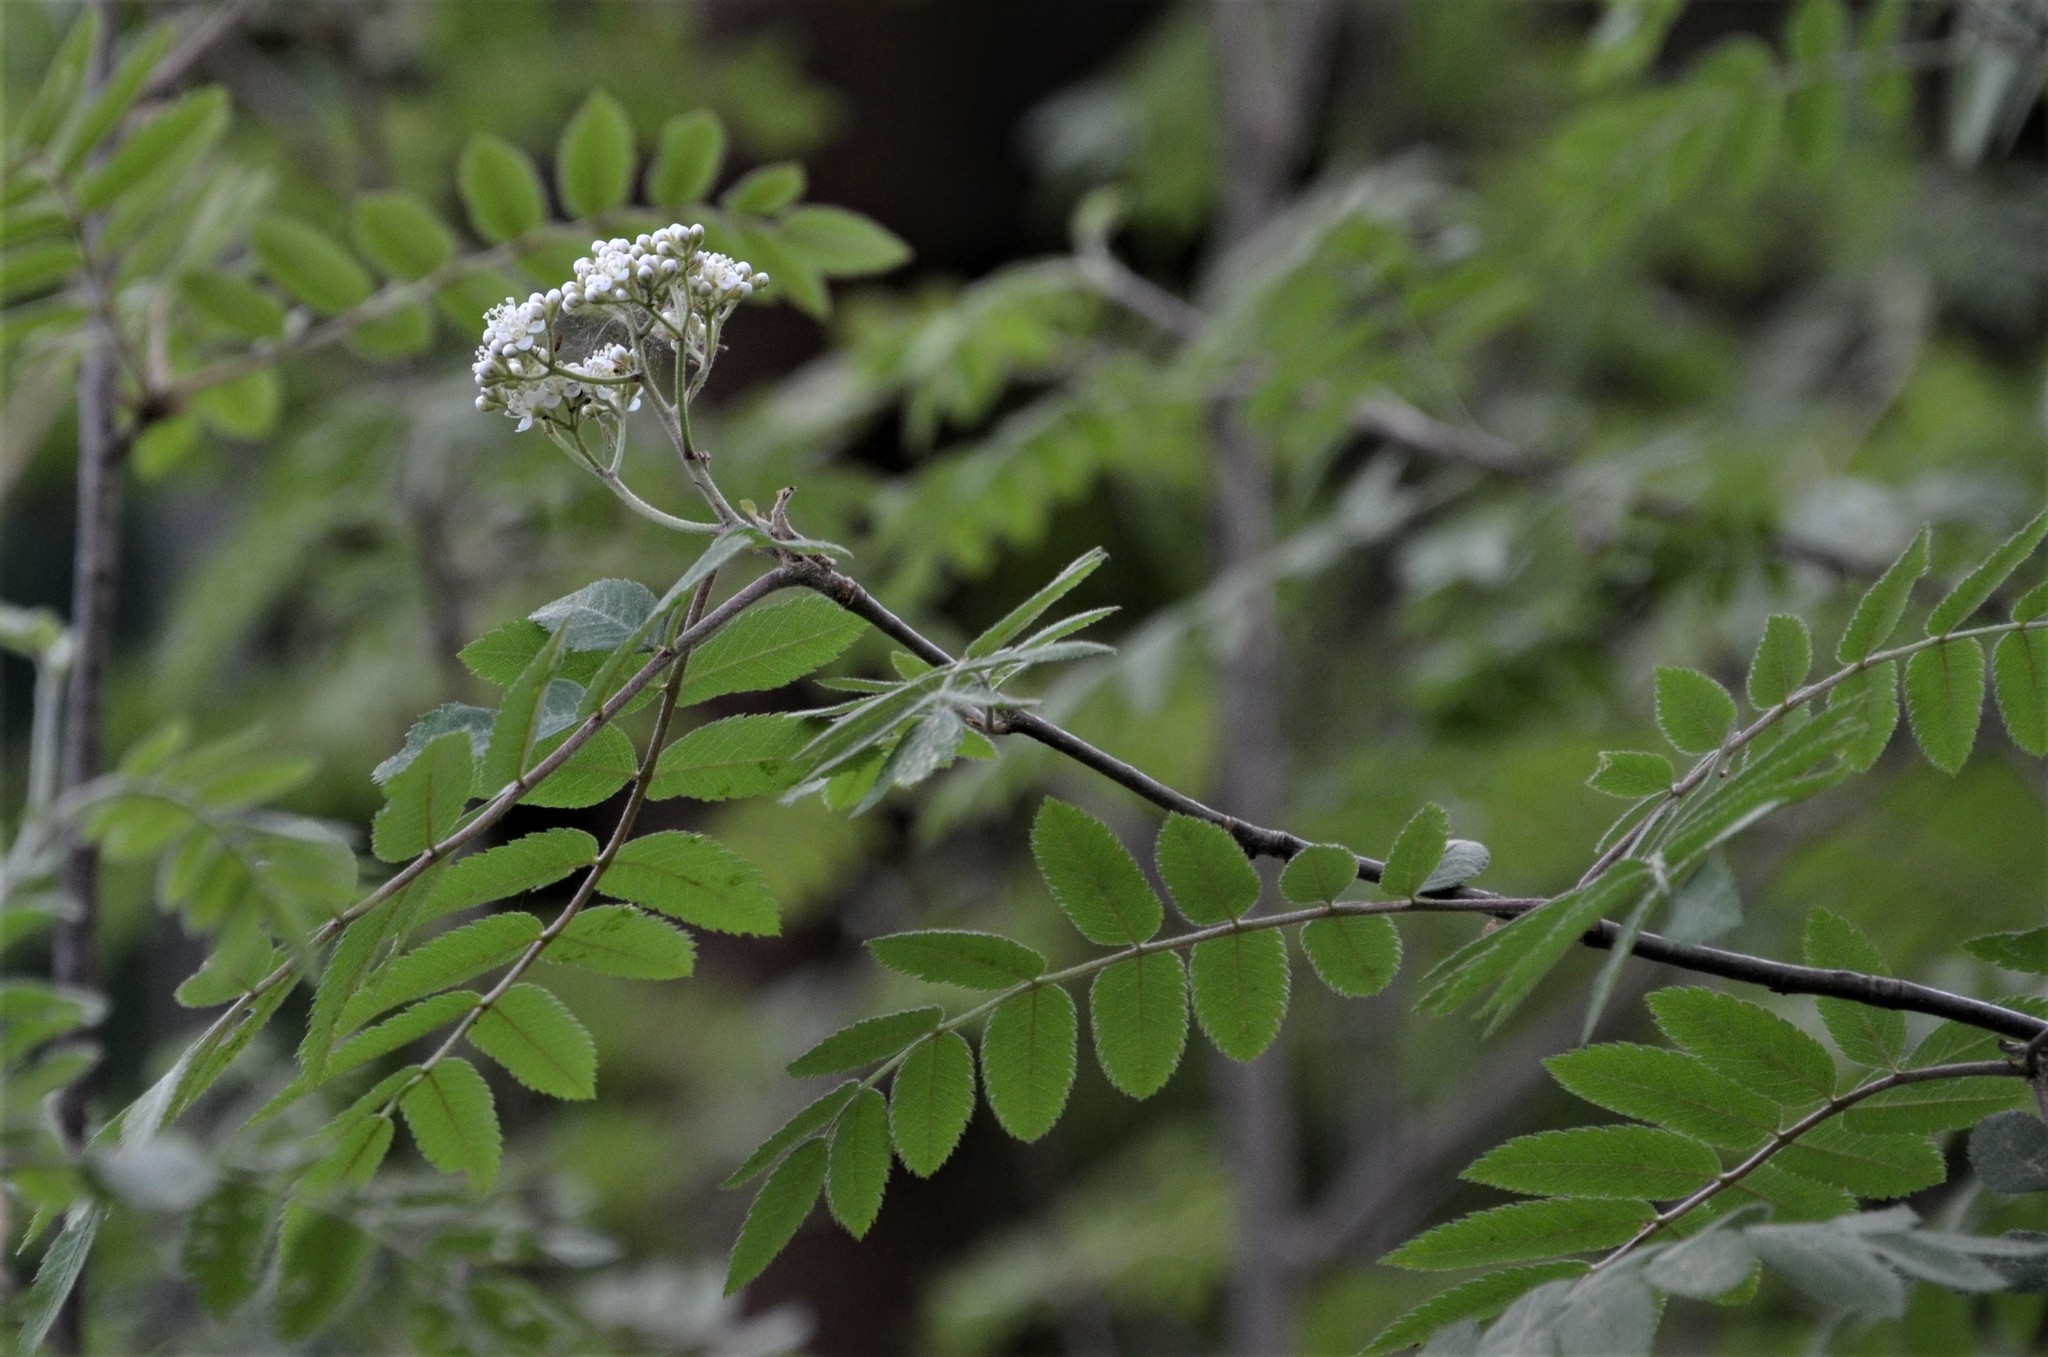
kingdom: Plantae
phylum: Tracheophyta
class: Magnoliopsida
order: Rosales
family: Rosaceae
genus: Sorbus
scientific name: Sorbus aucuparia
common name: Rowan
